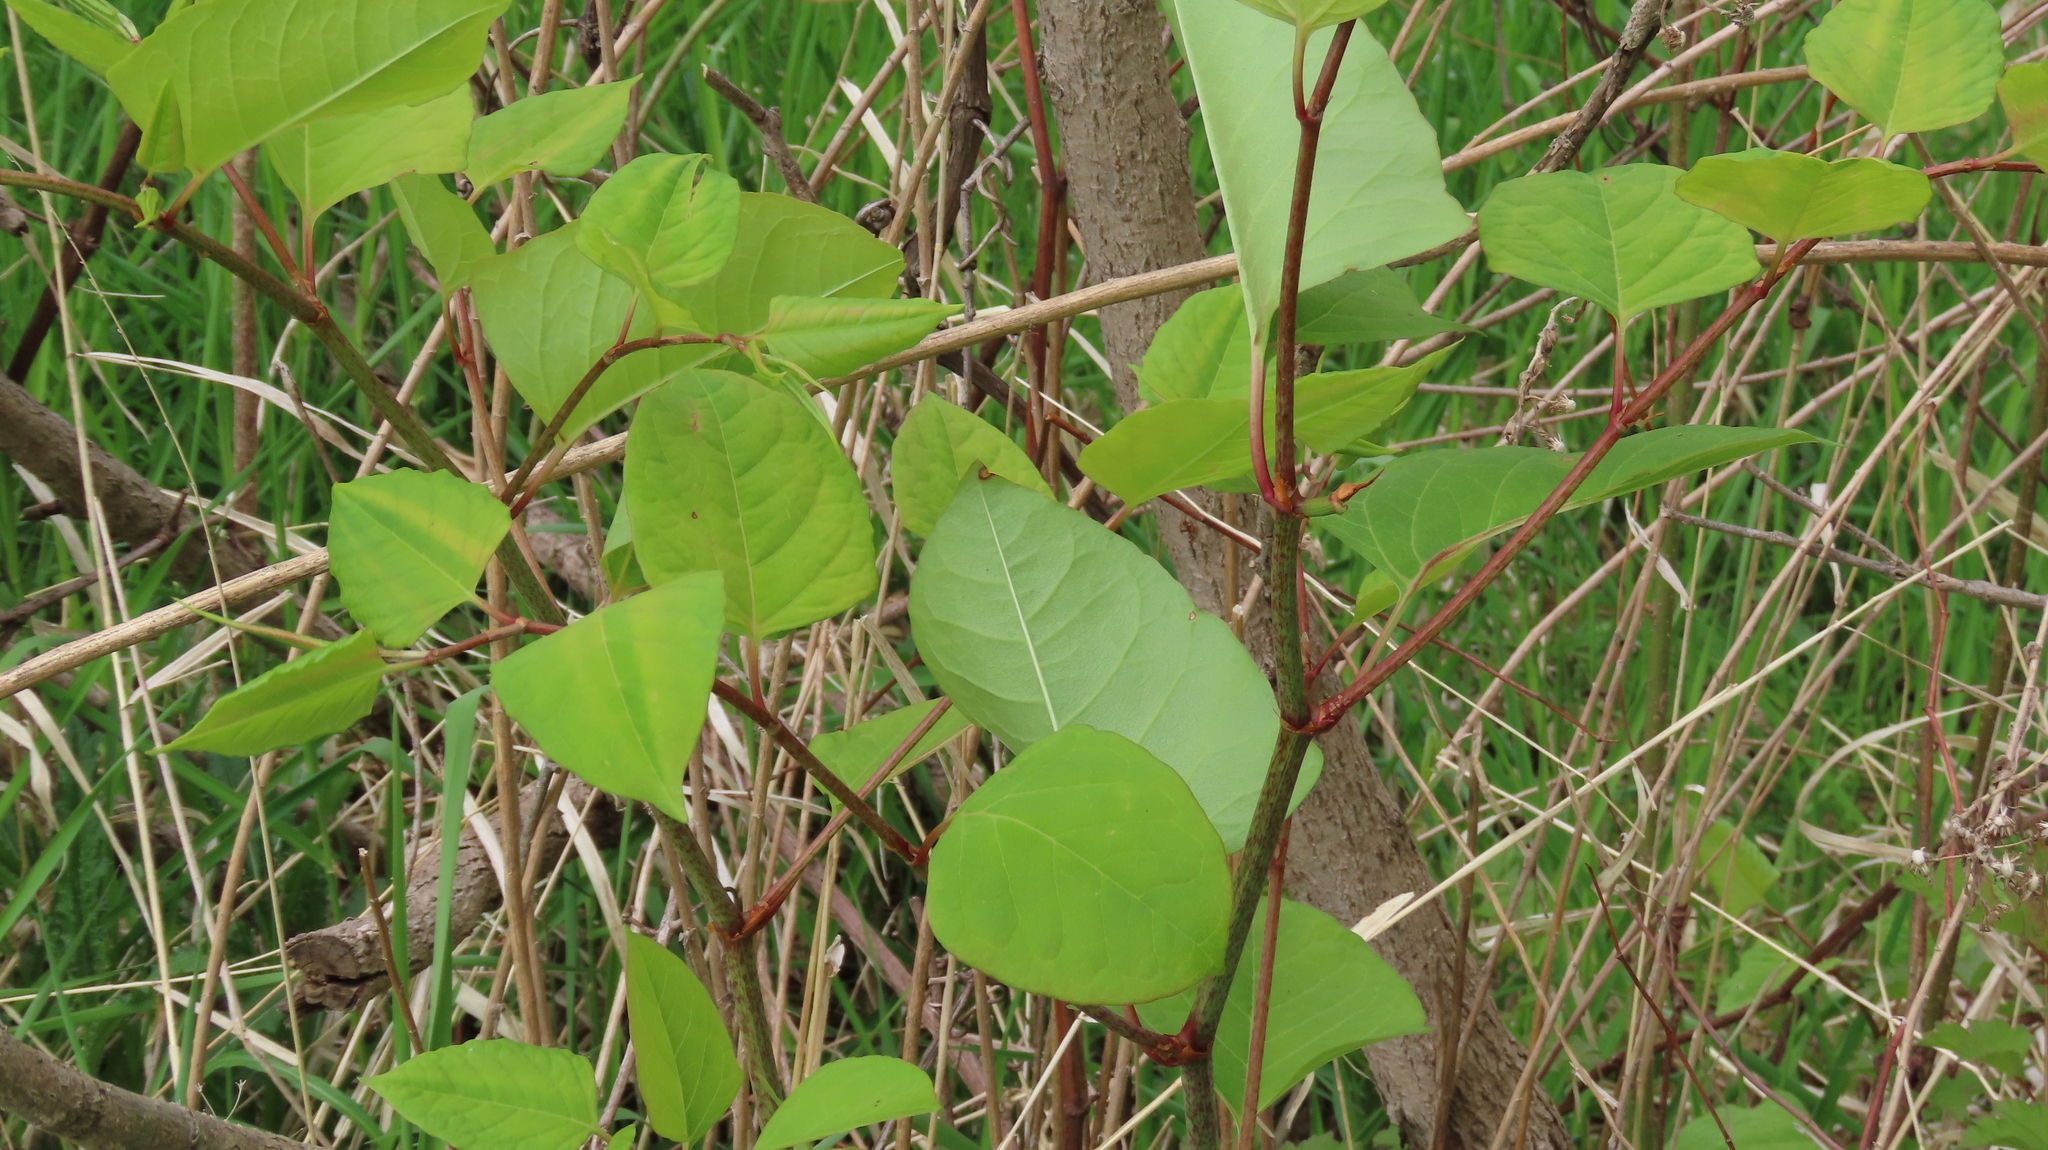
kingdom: Plantae
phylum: Tracheophyta
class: Magnoliopsida
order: Caryophyllales
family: Polygonaceae
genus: Reynoutria
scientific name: Reynoutria japonica
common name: Japanese knotweed
